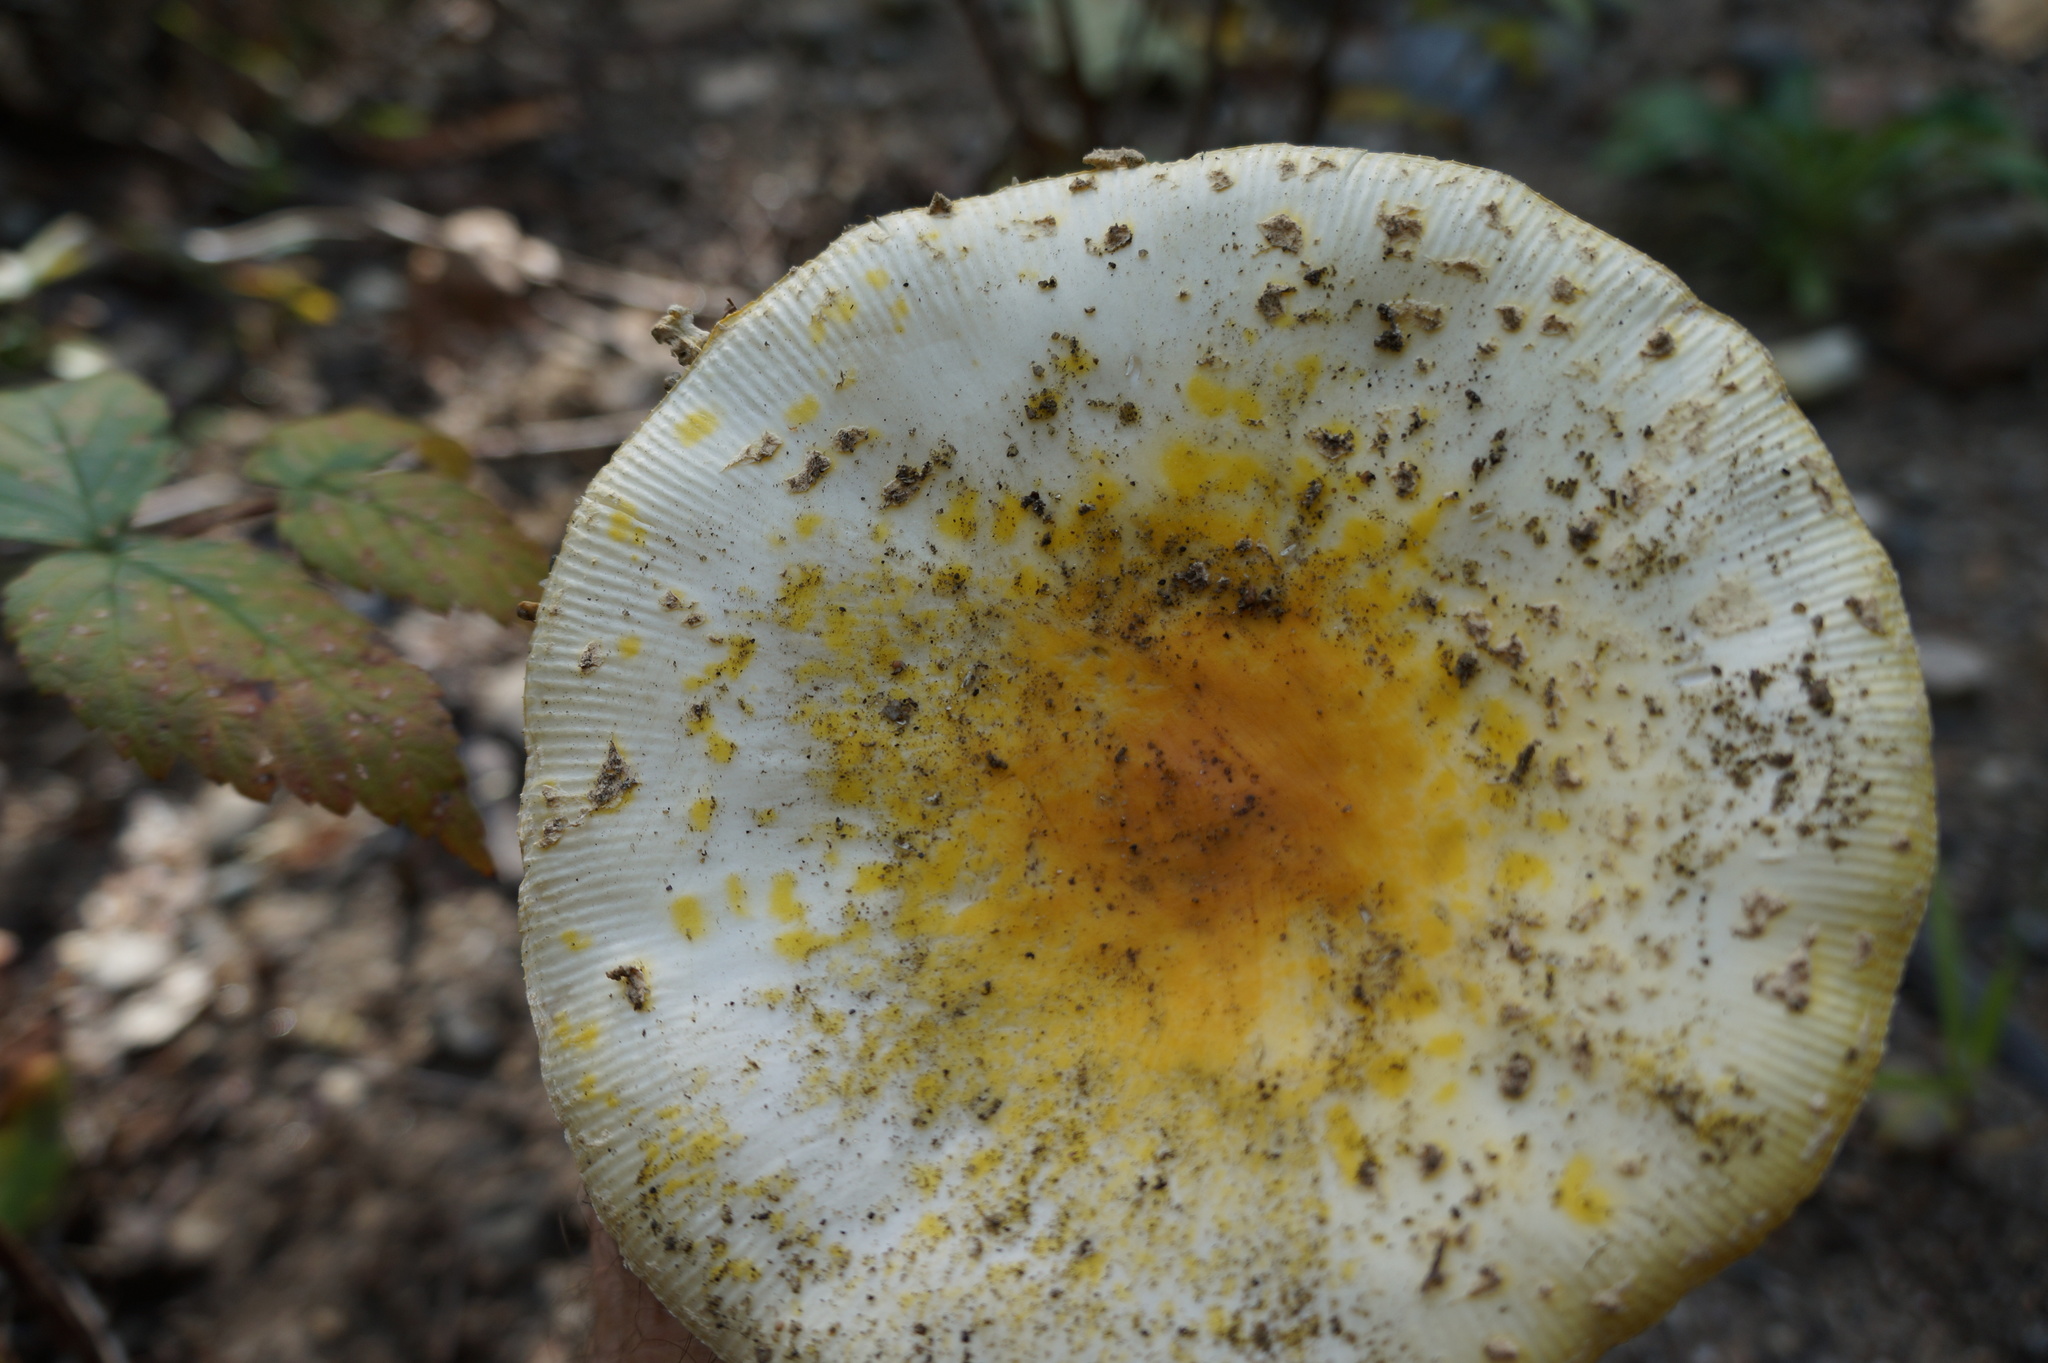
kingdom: Fungi
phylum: Basidiomycota
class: Agaricomycetes
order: Agaricales
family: Amanitaceae
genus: Amanita
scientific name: Amanita muscaria
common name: Fly agaric
